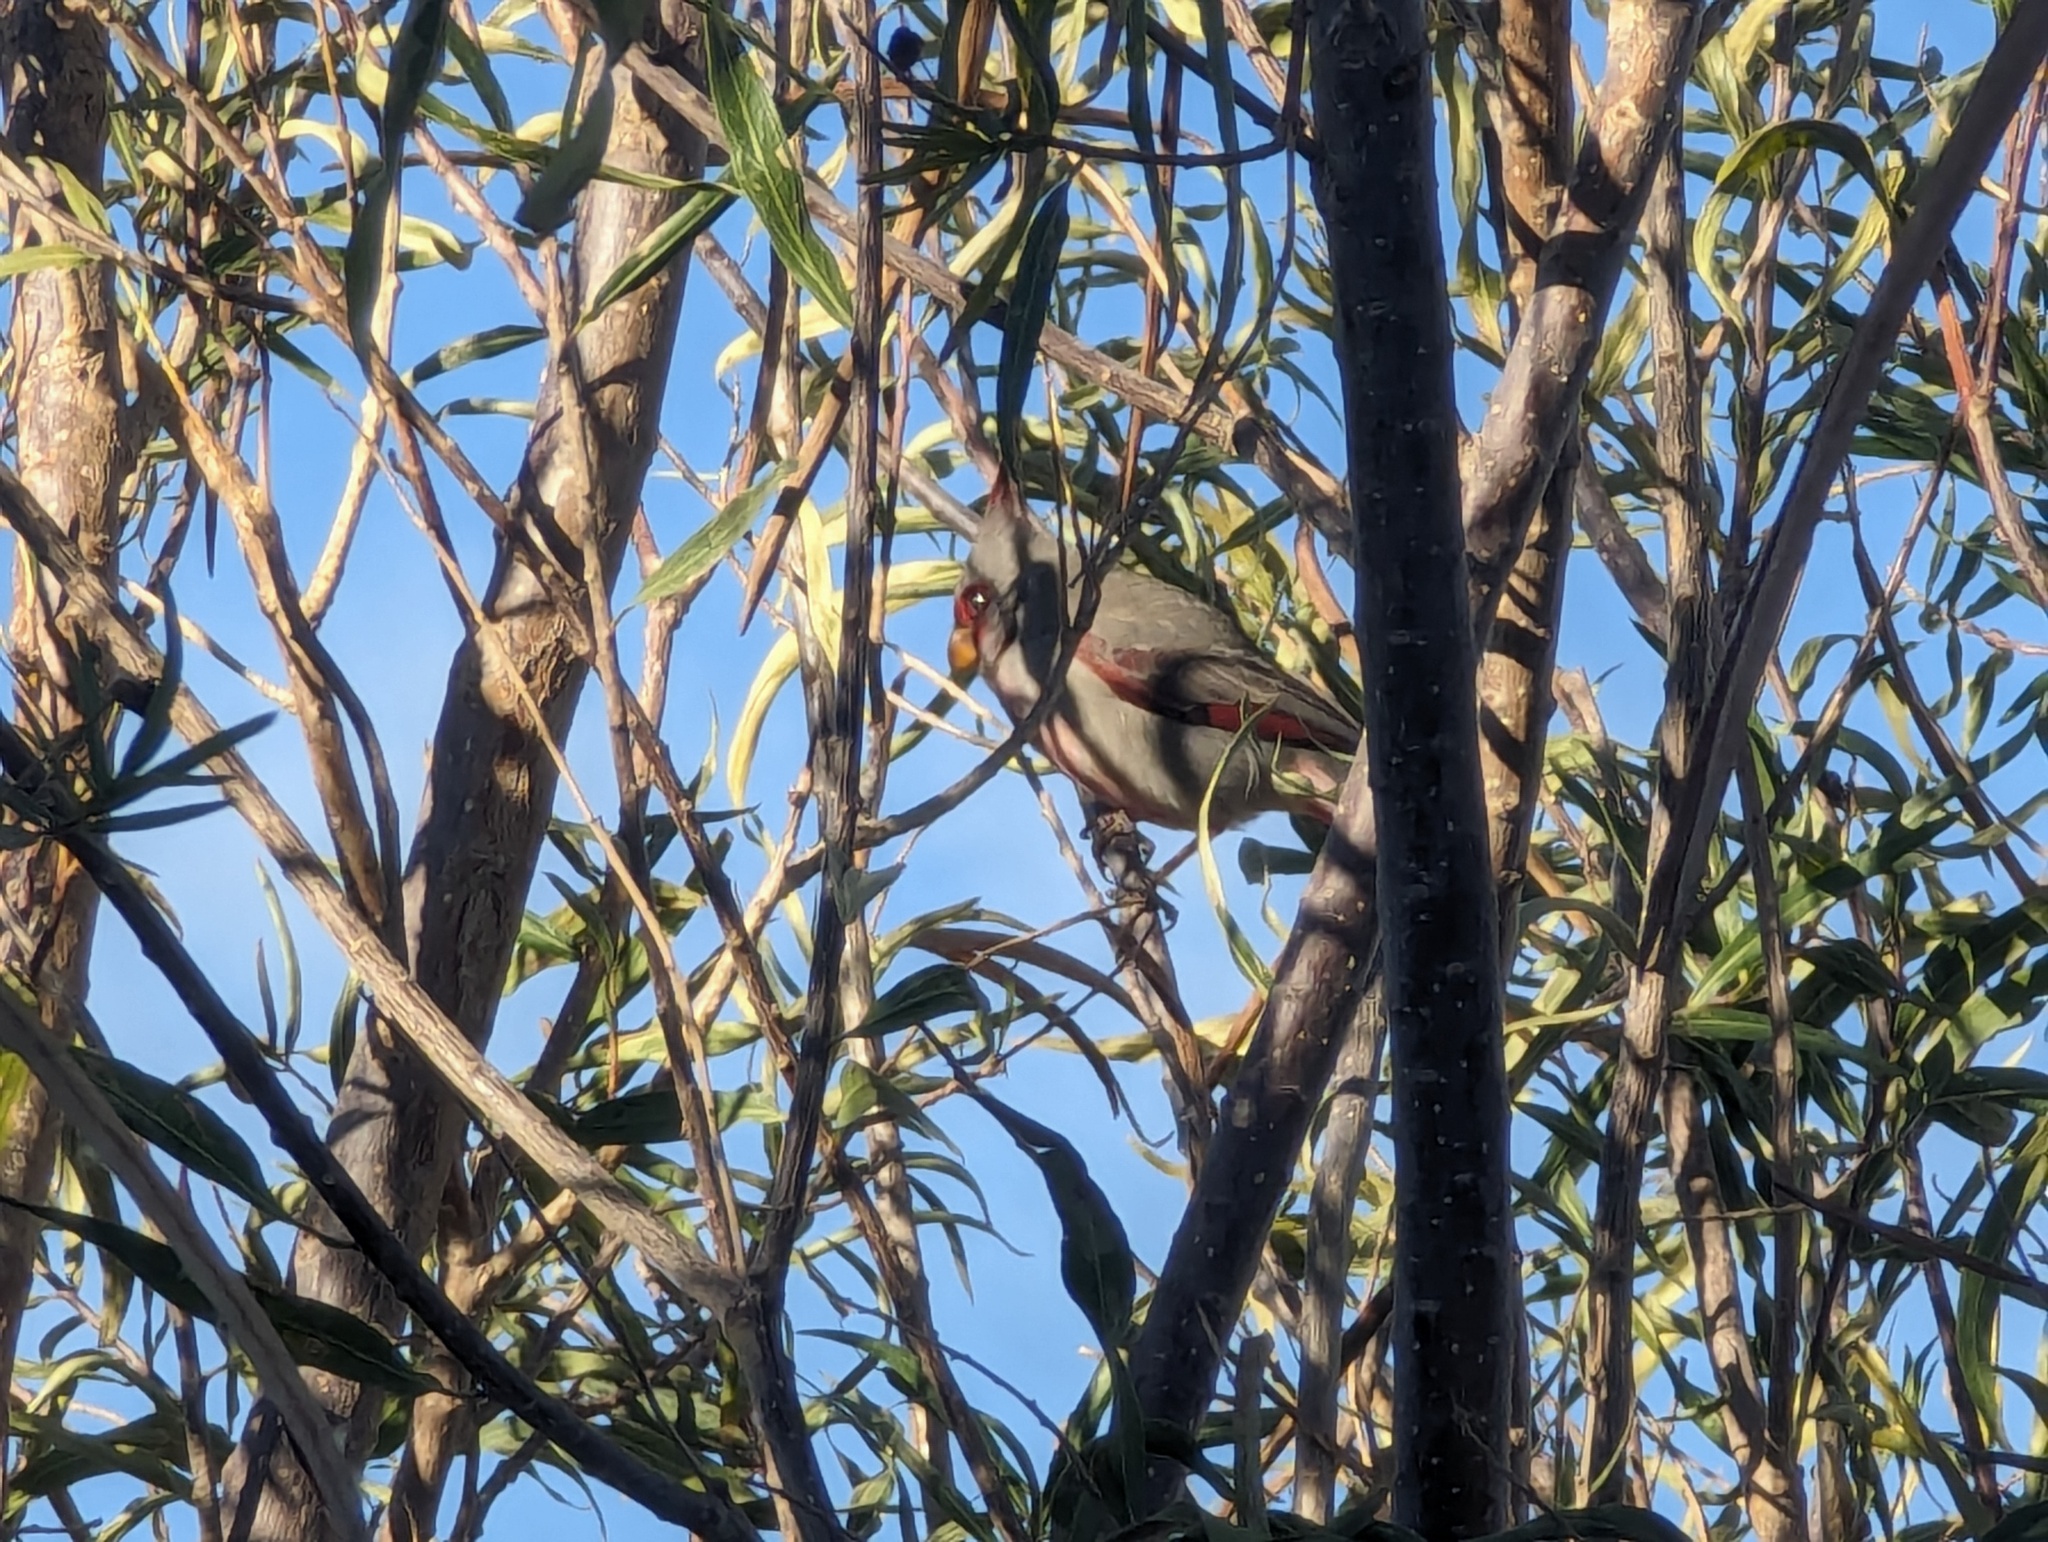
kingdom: Animalia
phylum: Chordata
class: Aves
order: Passeriformes
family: Cardinalidae
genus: Cardinalis
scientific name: Cardinalis sinuatus
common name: Pyrrhuloxia
